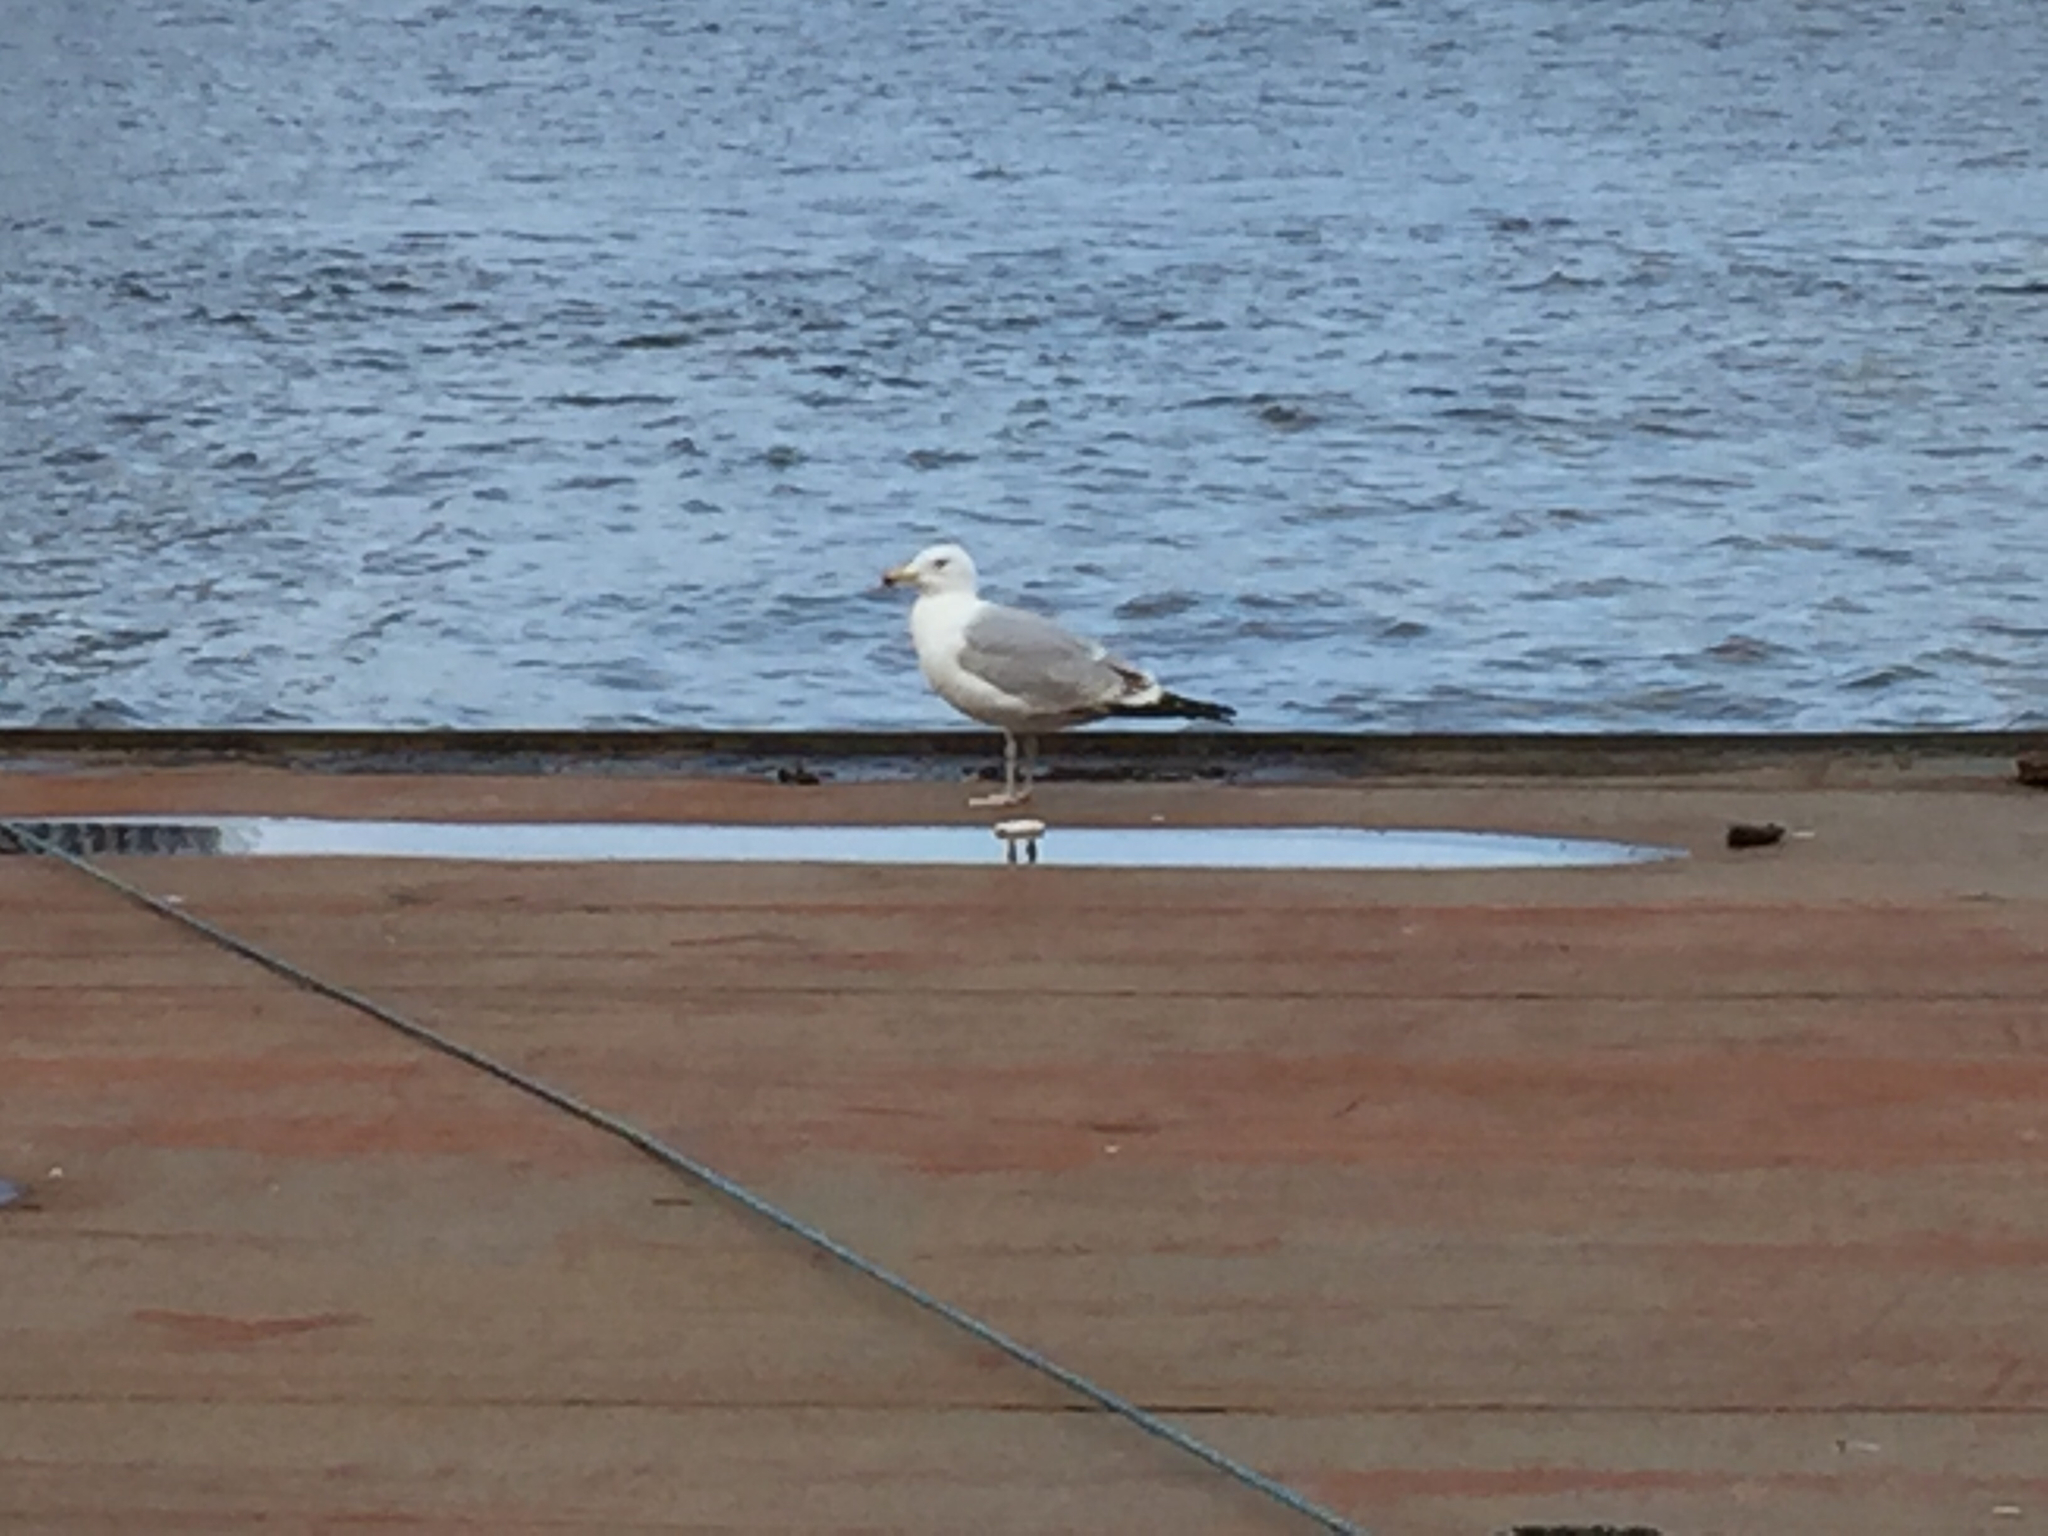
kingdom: Animalia
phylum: Chordata
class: Aves
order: Charadriiformes
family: Laridae
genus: Larus
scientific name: Larus argentatus
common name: Herring gull
